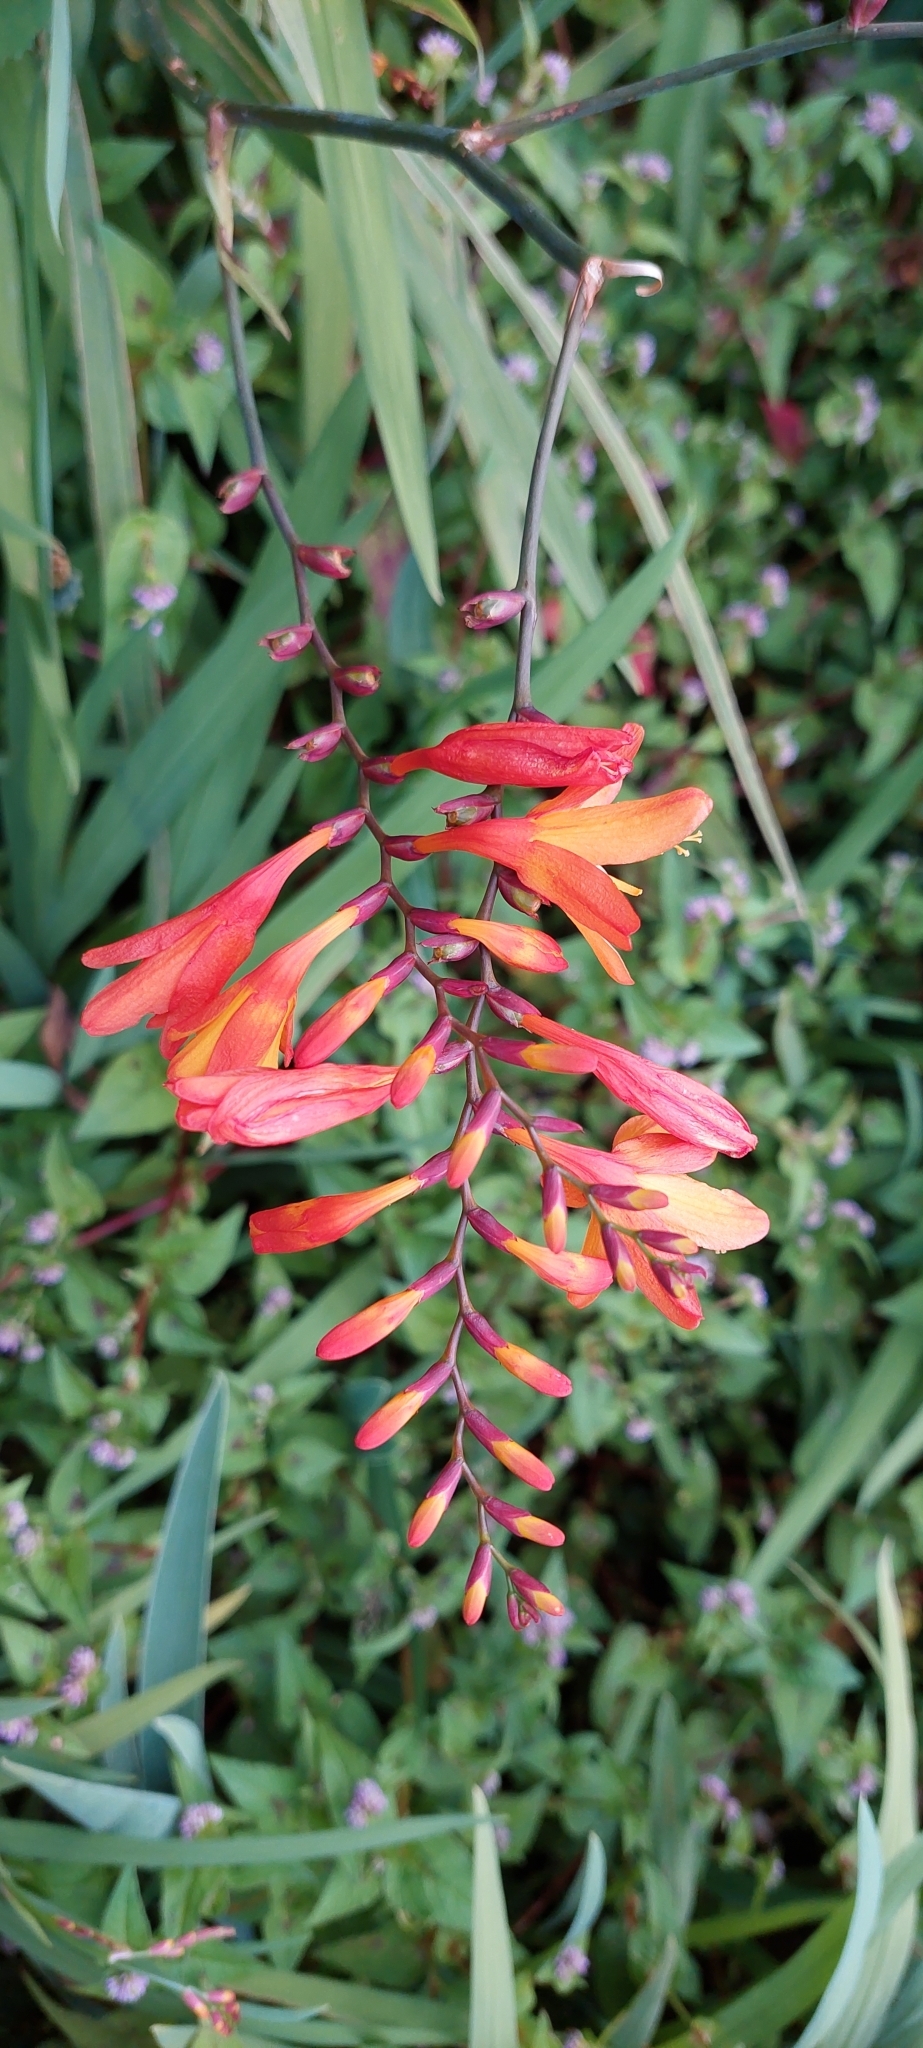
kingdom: Plantae
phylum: Tracheophyta
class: Liliopsida
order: Asparagales
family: Iridaceae
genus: Crocosmia
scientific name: Crocosmia crocosmiiflora
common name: Montbretia
